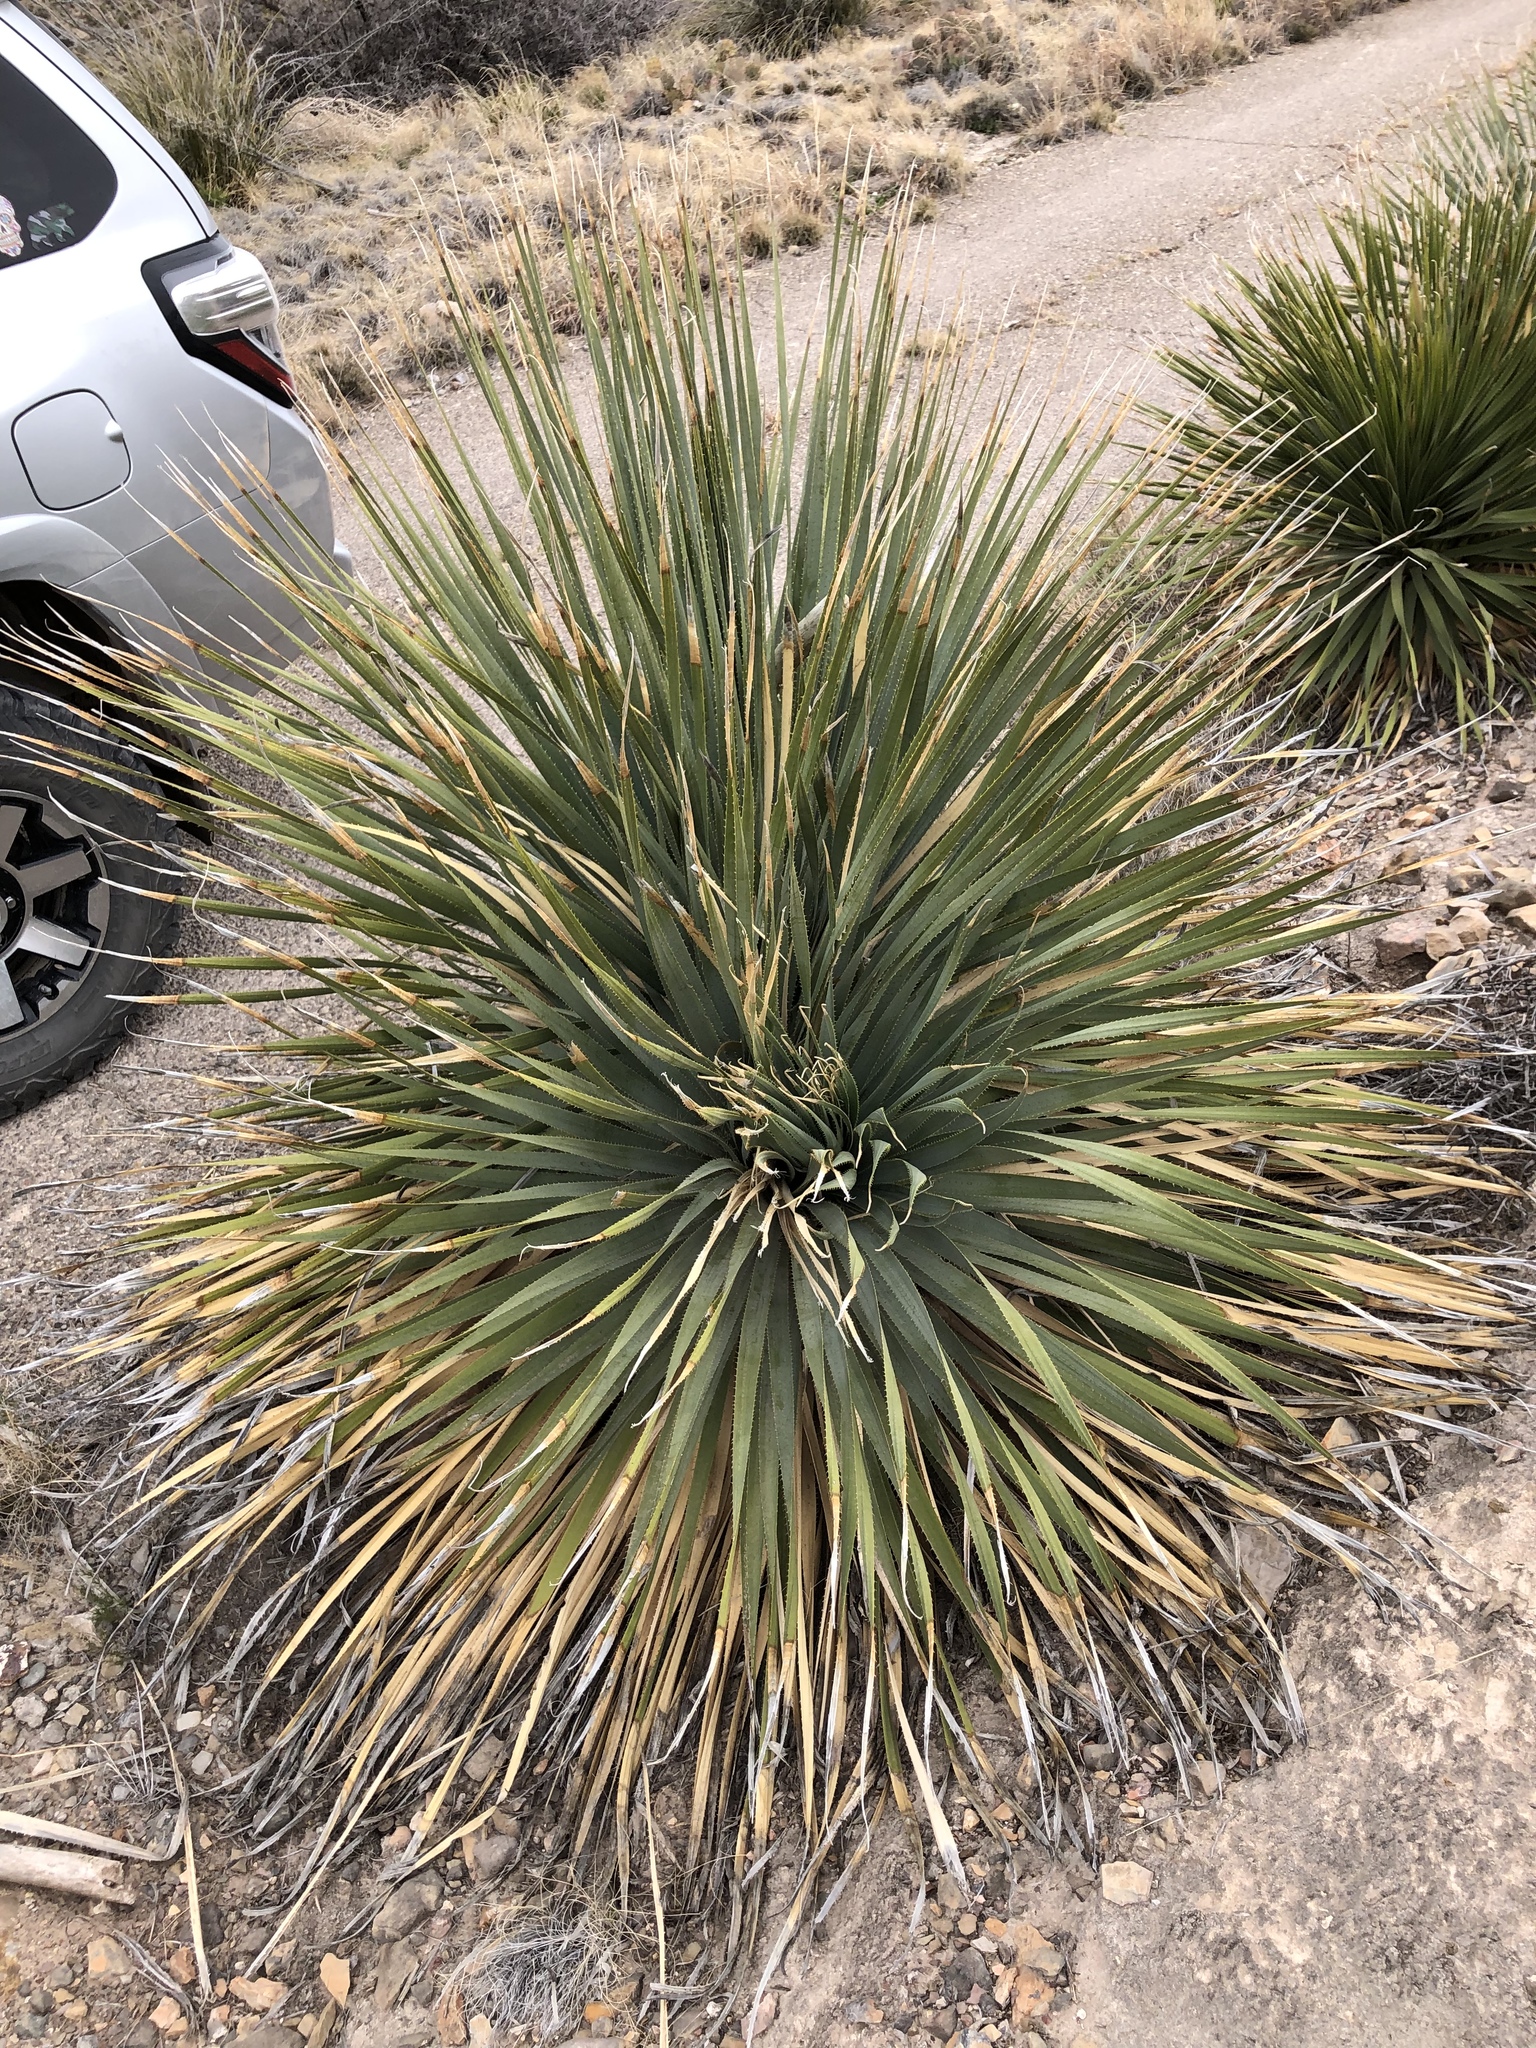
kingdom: Plantae
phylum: Tracheophyta
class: Liliopsida
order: Asparagales
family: Asparagaceae
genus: Dasylirion
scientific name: Dasylirion wheeleri
